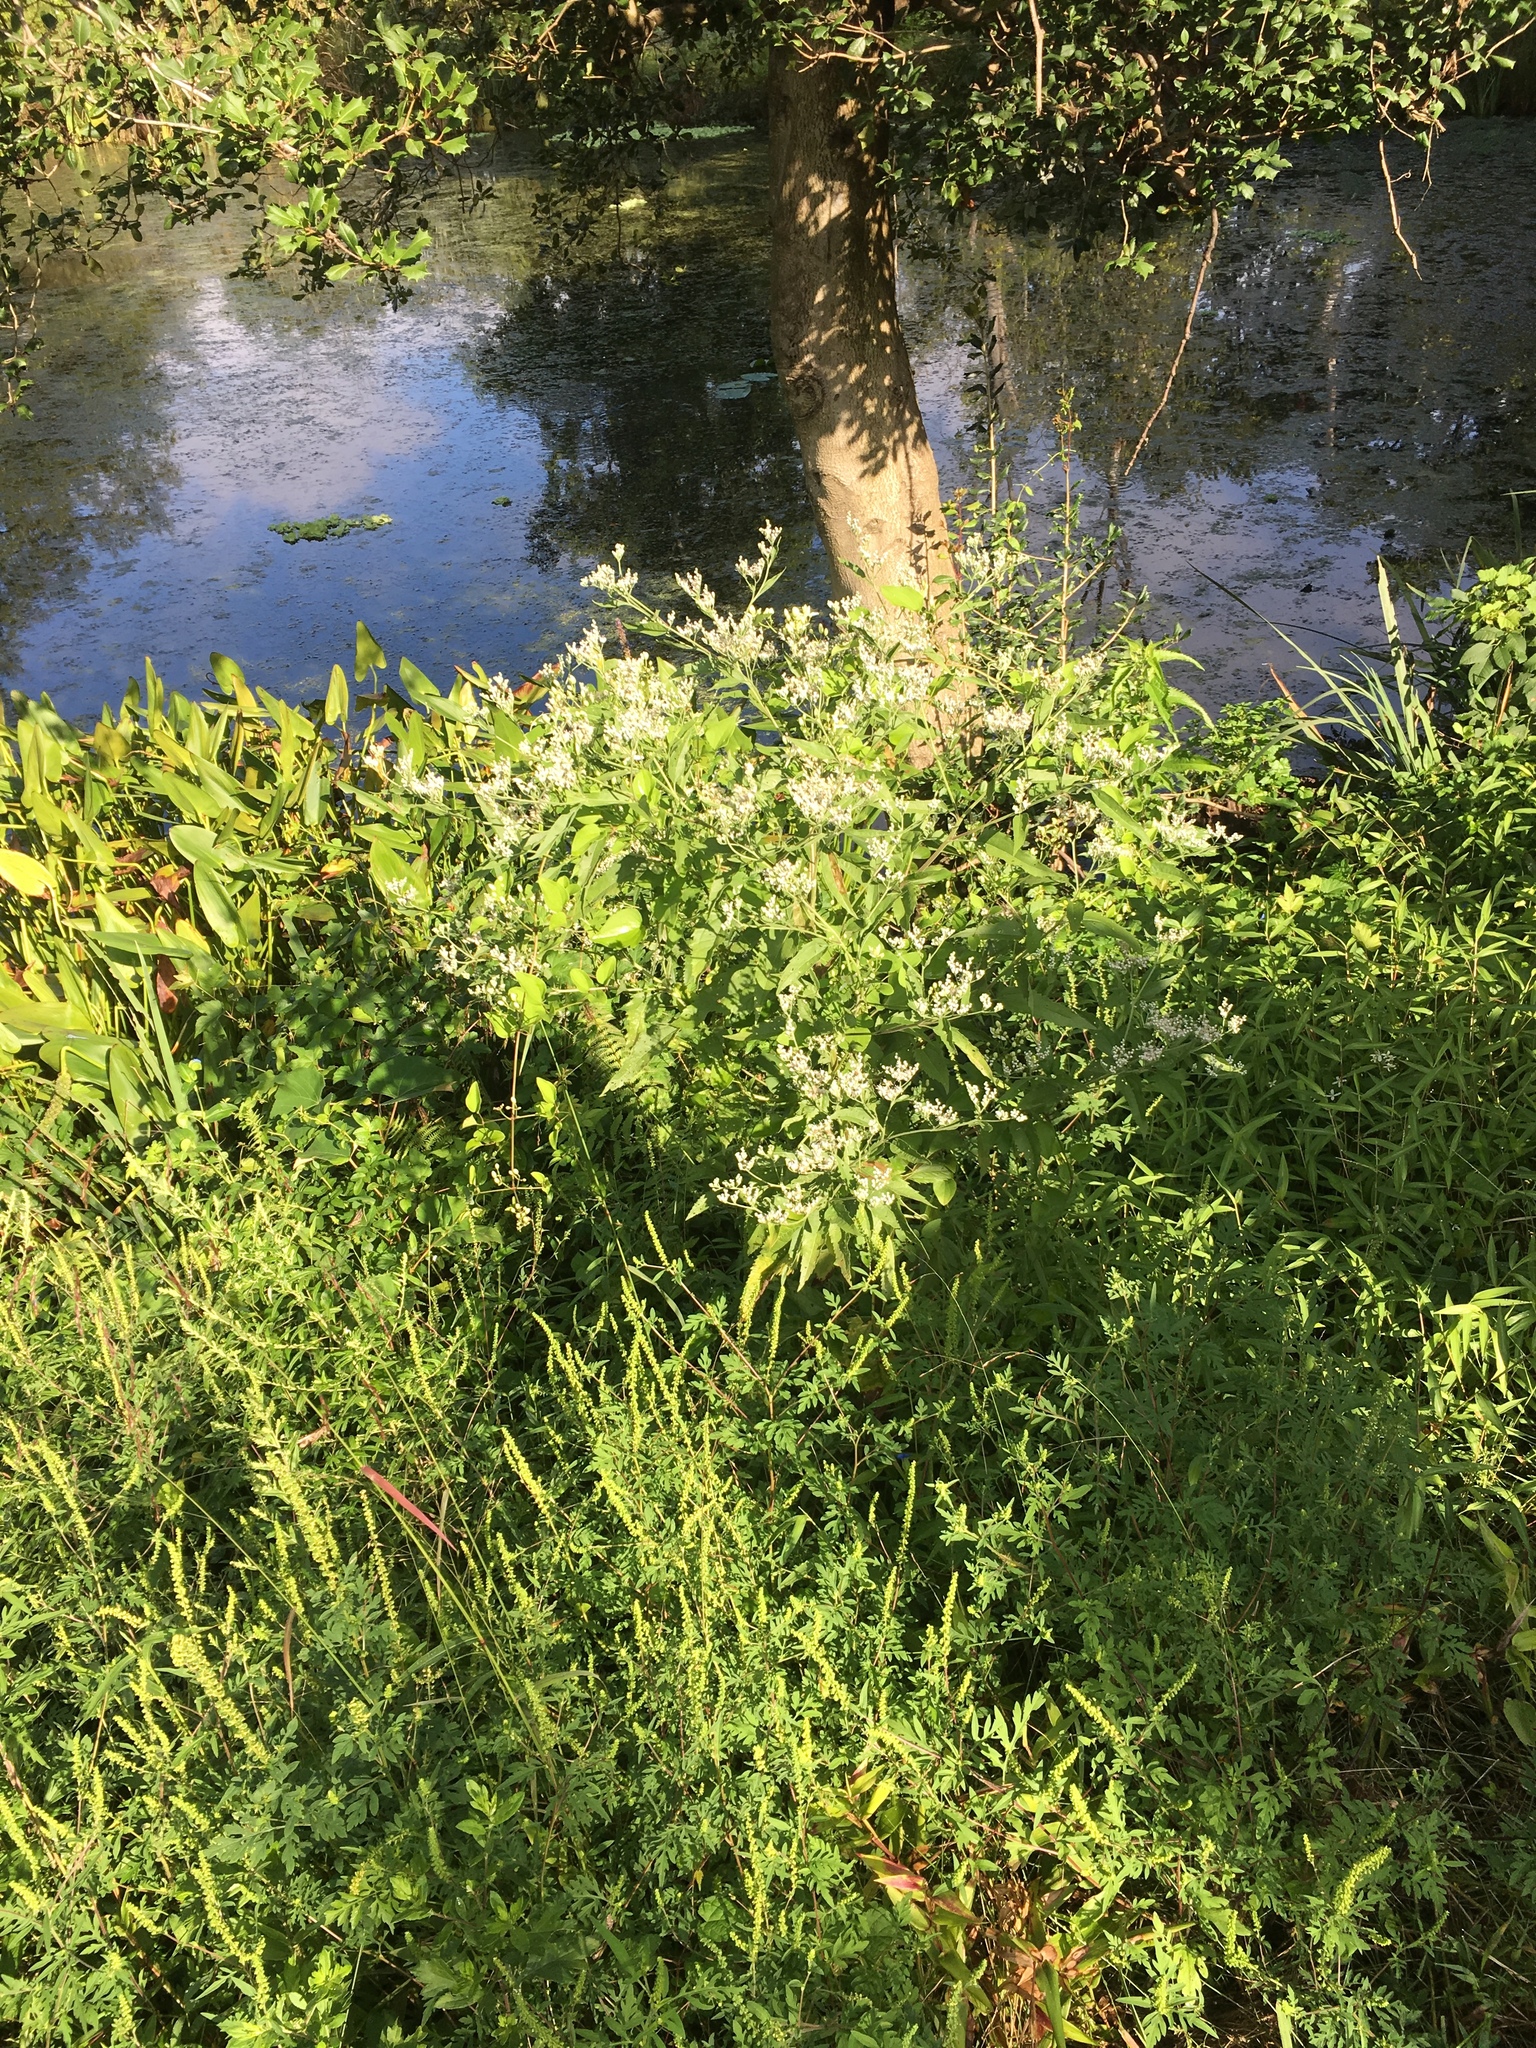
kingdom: Plantae
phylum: Tracheophyta
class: Magnoliopsida
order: Asterales
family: Asteraceae
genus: Eupatorium
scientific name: Eupatorium serotinum
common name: Late boneset
